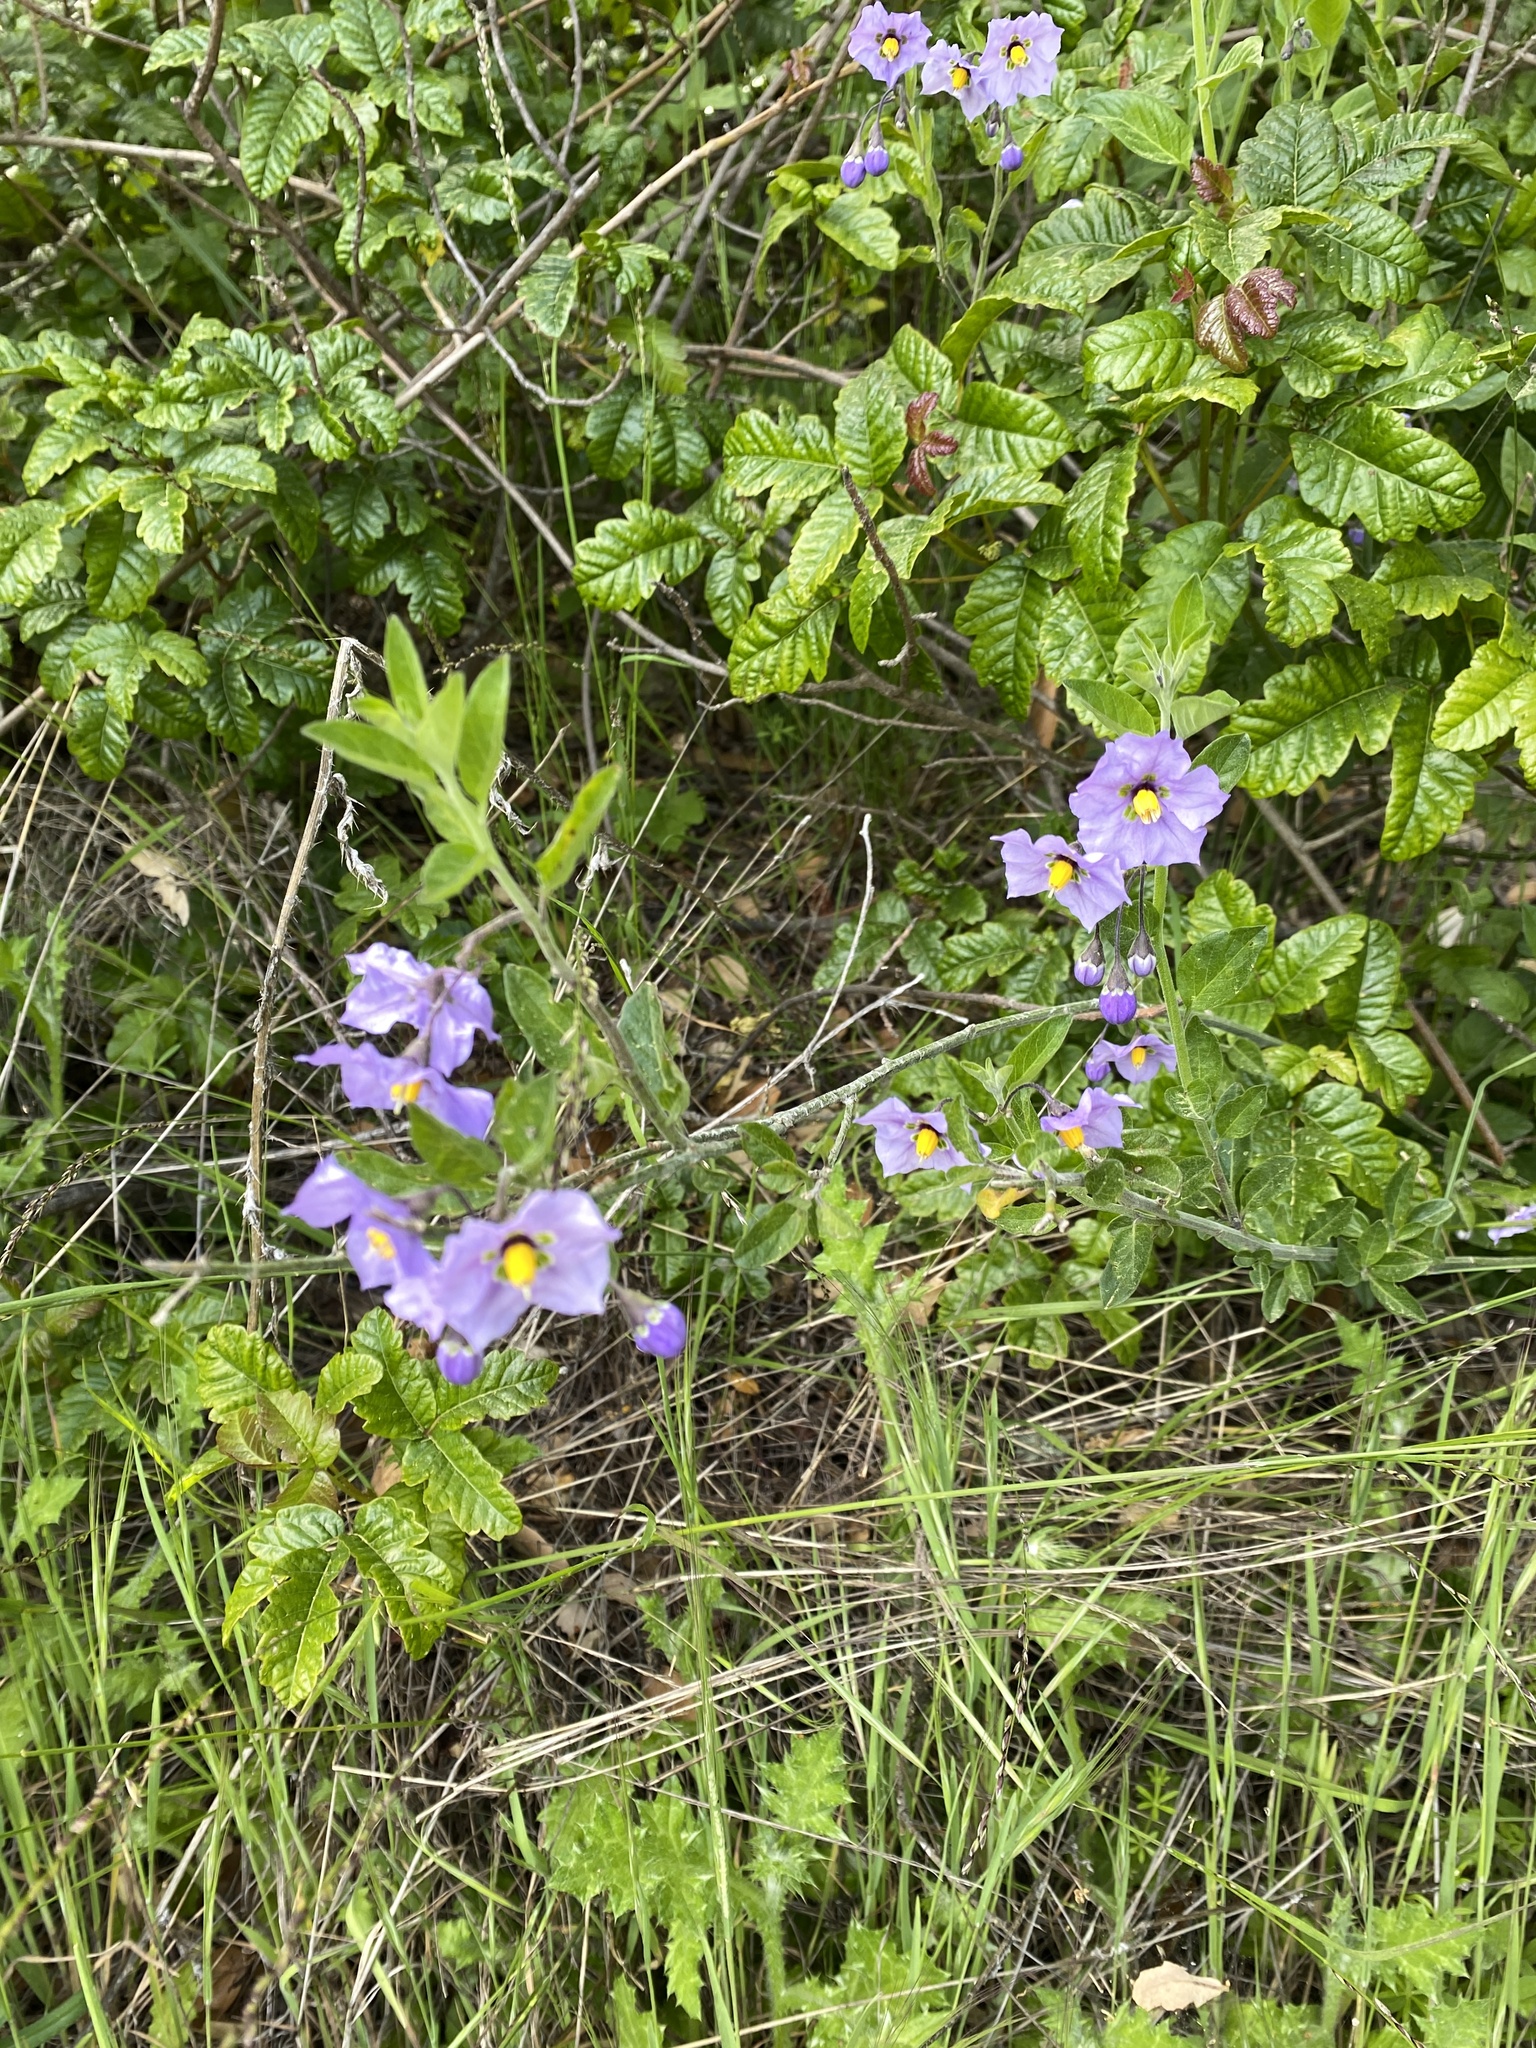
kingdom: Plantae
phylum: Tracheophyta
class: Magnoliopsida
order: Solanales
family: Solanaceae
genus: Solanum
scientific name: Solanum umbelliferum
